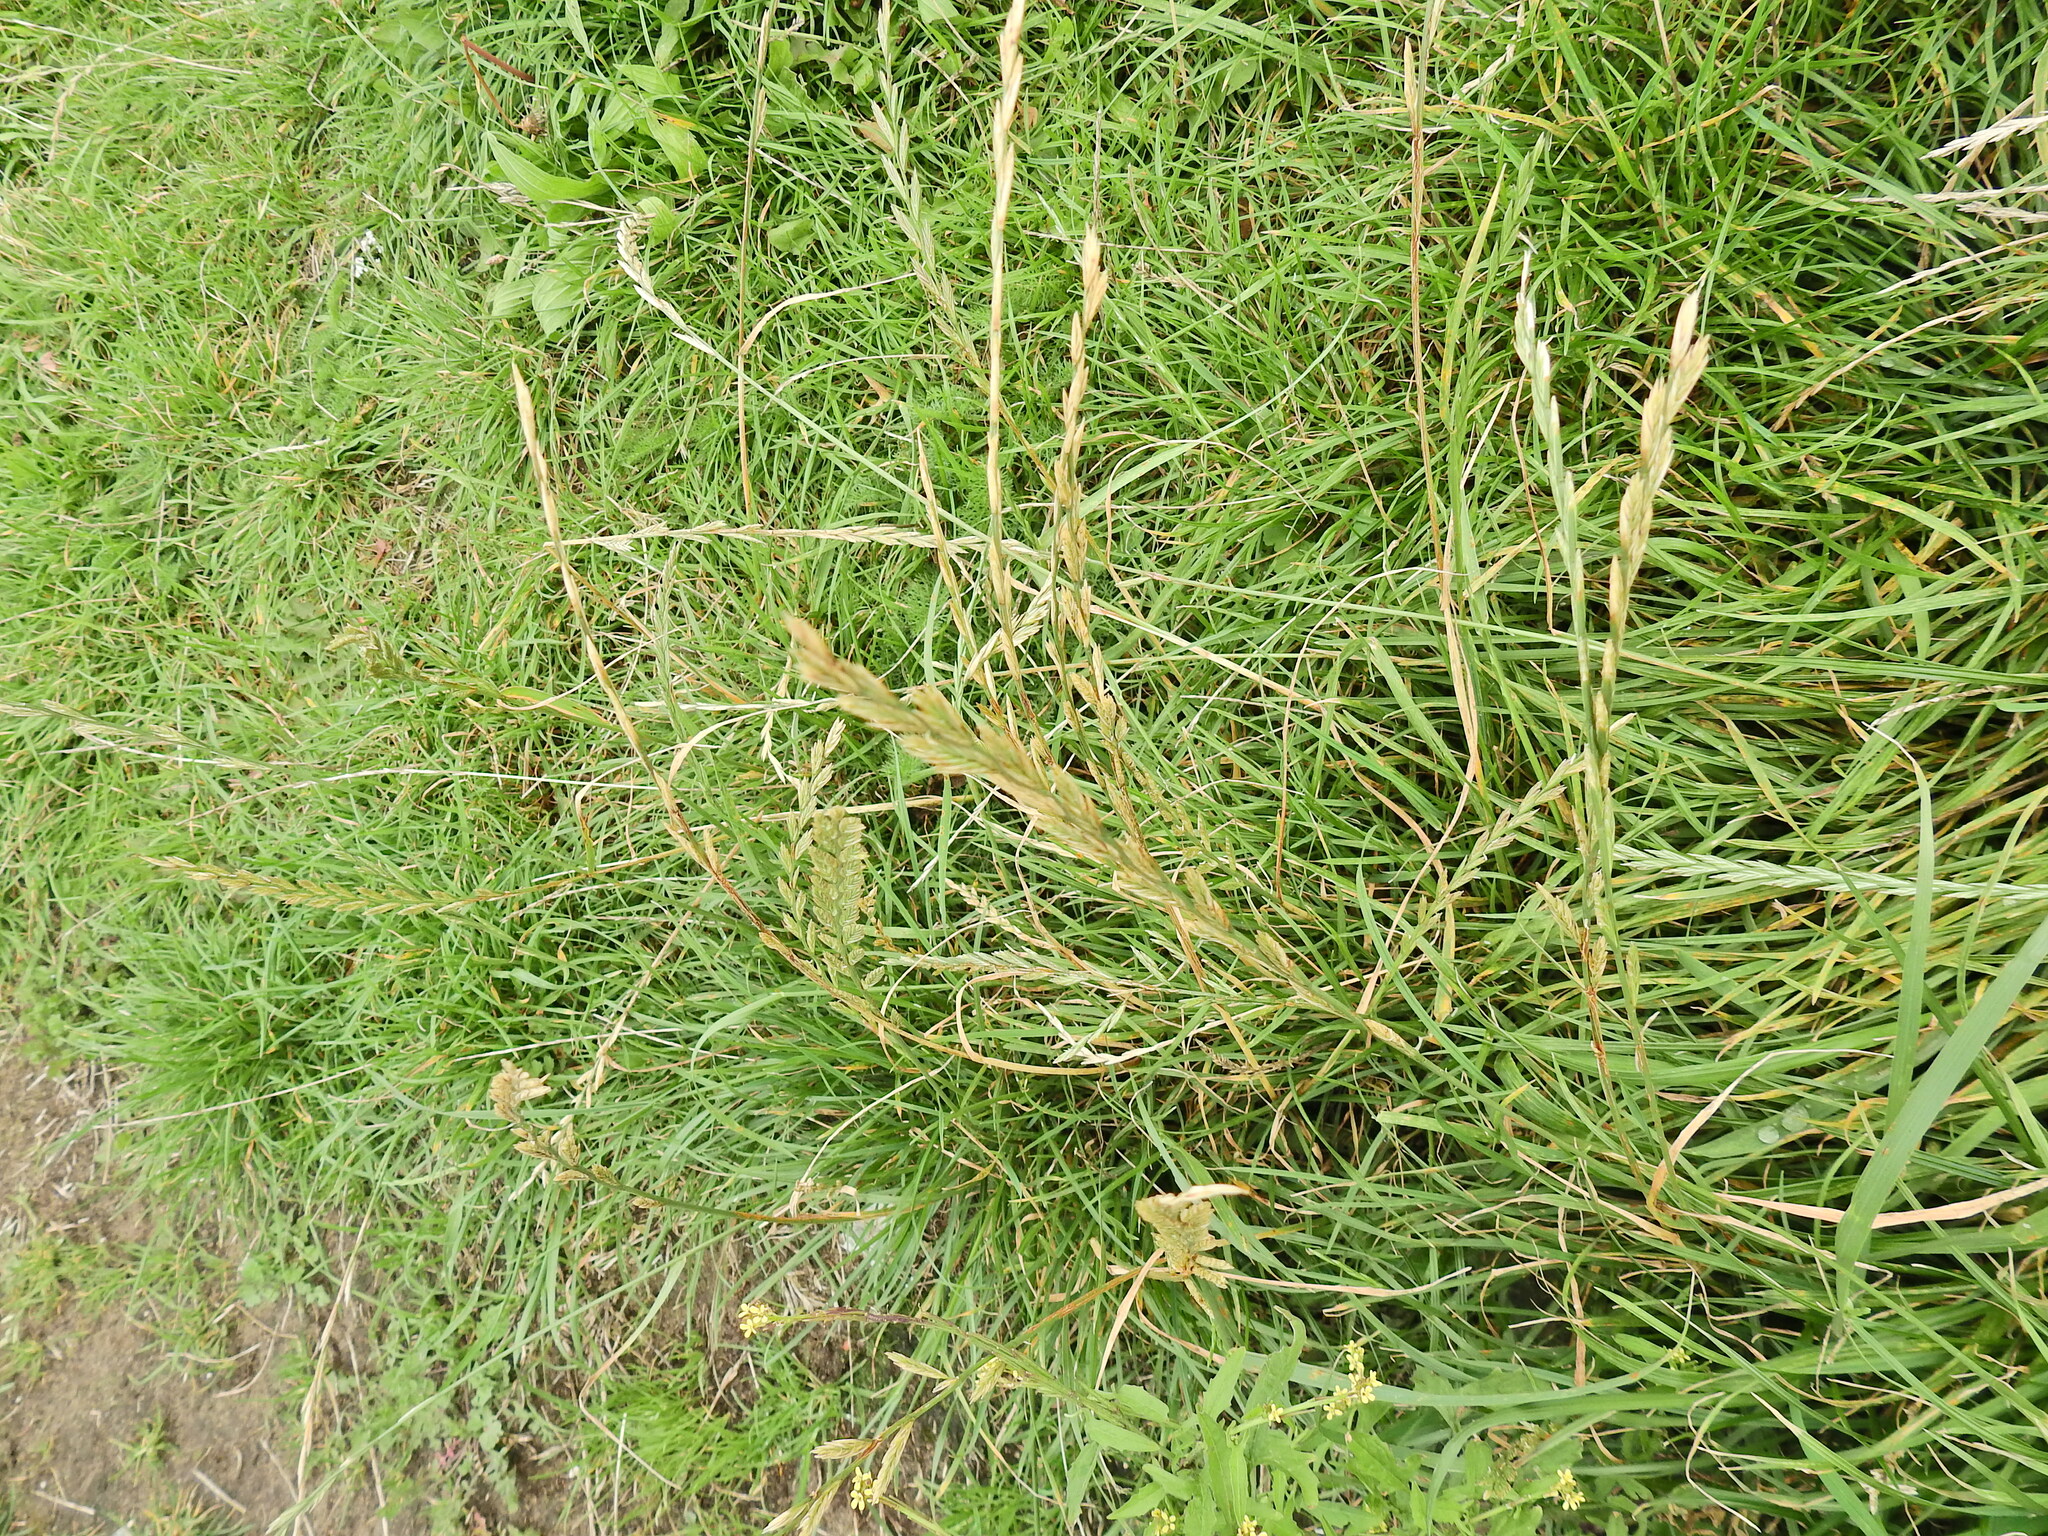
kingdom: Plantae
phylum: Tracheophyta
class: Liliopsida
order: Poales
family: Poaceae
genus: Lolium
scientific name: Lolium perenne
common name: Perennial ryegrass
